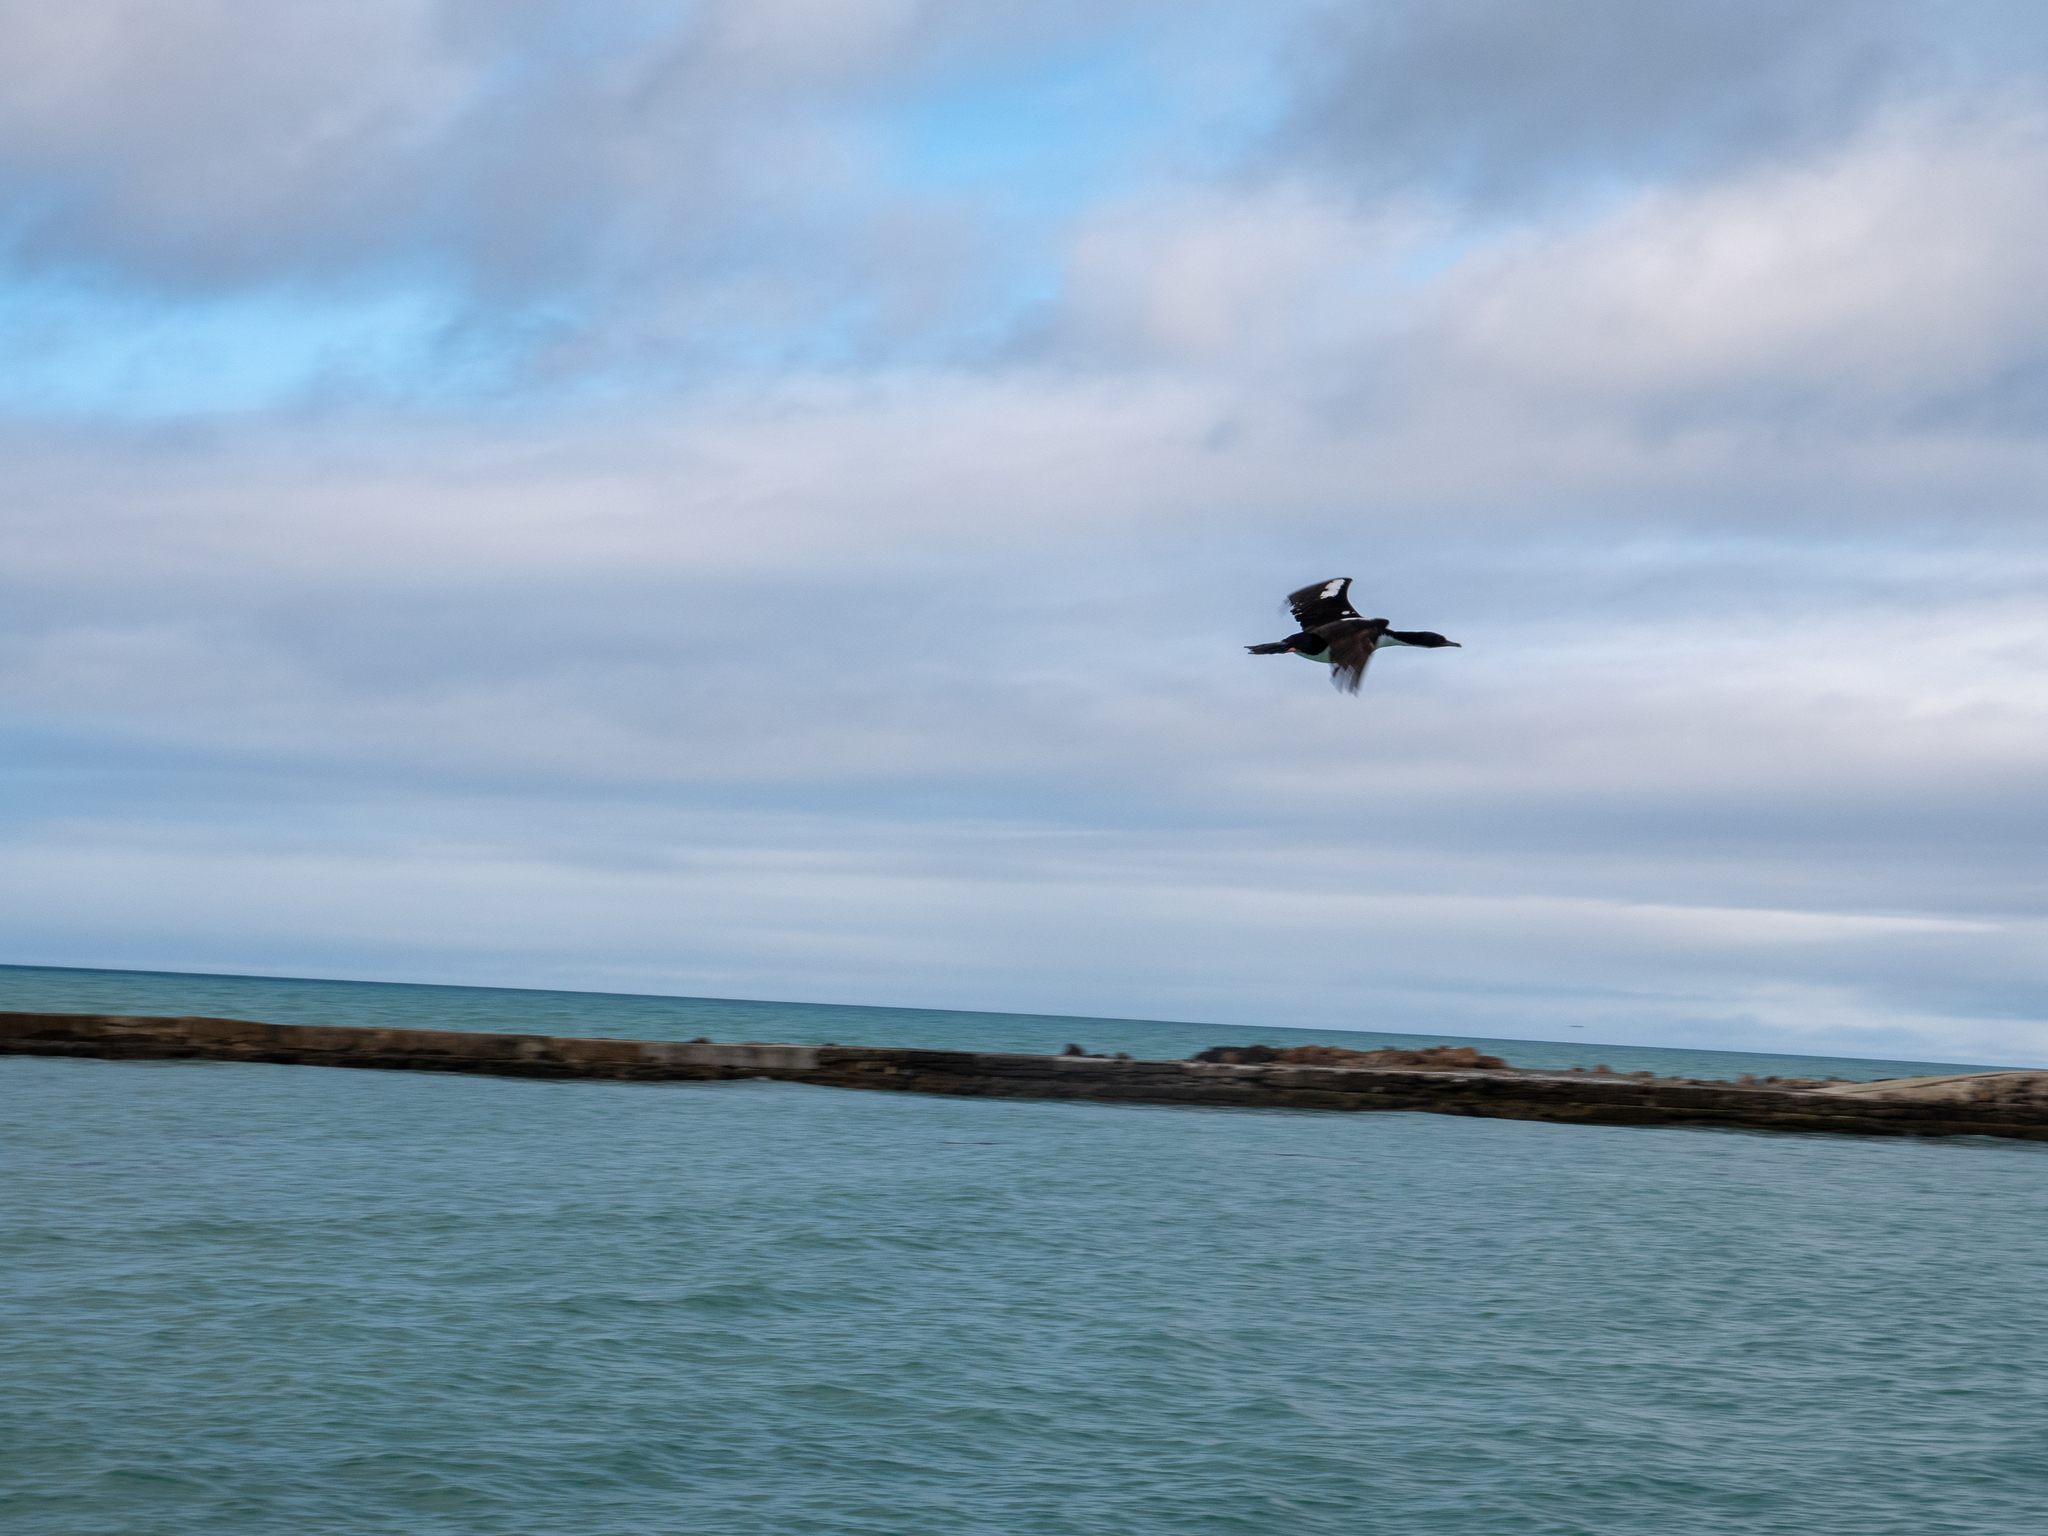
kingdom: Animalia
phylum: Chordata
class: Aves
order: Suliformes
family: Phalacrocoracidae
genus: Leucocarbo
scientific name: Leucocarbo chalconotus
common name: Stewart shag
